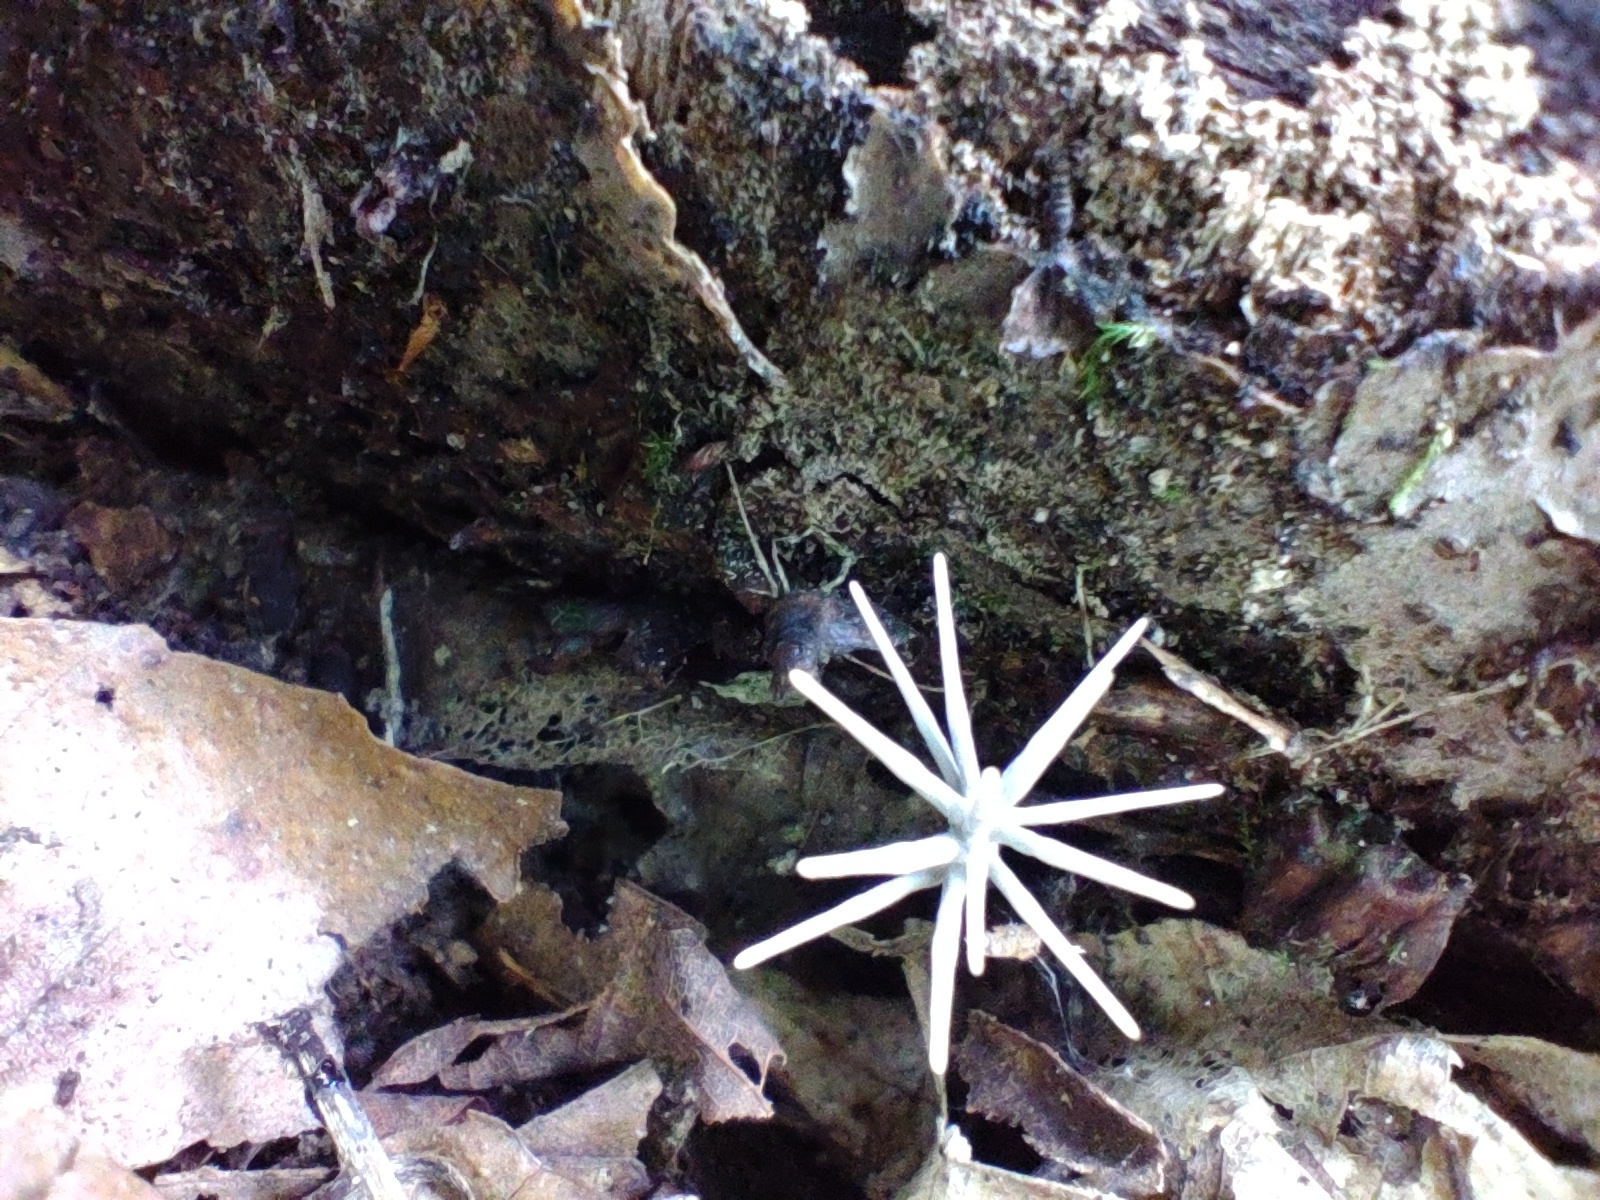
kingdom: Fungi
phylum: Ascomycota
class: Sordariomycetes
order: Xylariales
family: Xylariaceae
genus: Xylaria
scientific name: Xylaria tentaculata
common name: Fairy sparklers
